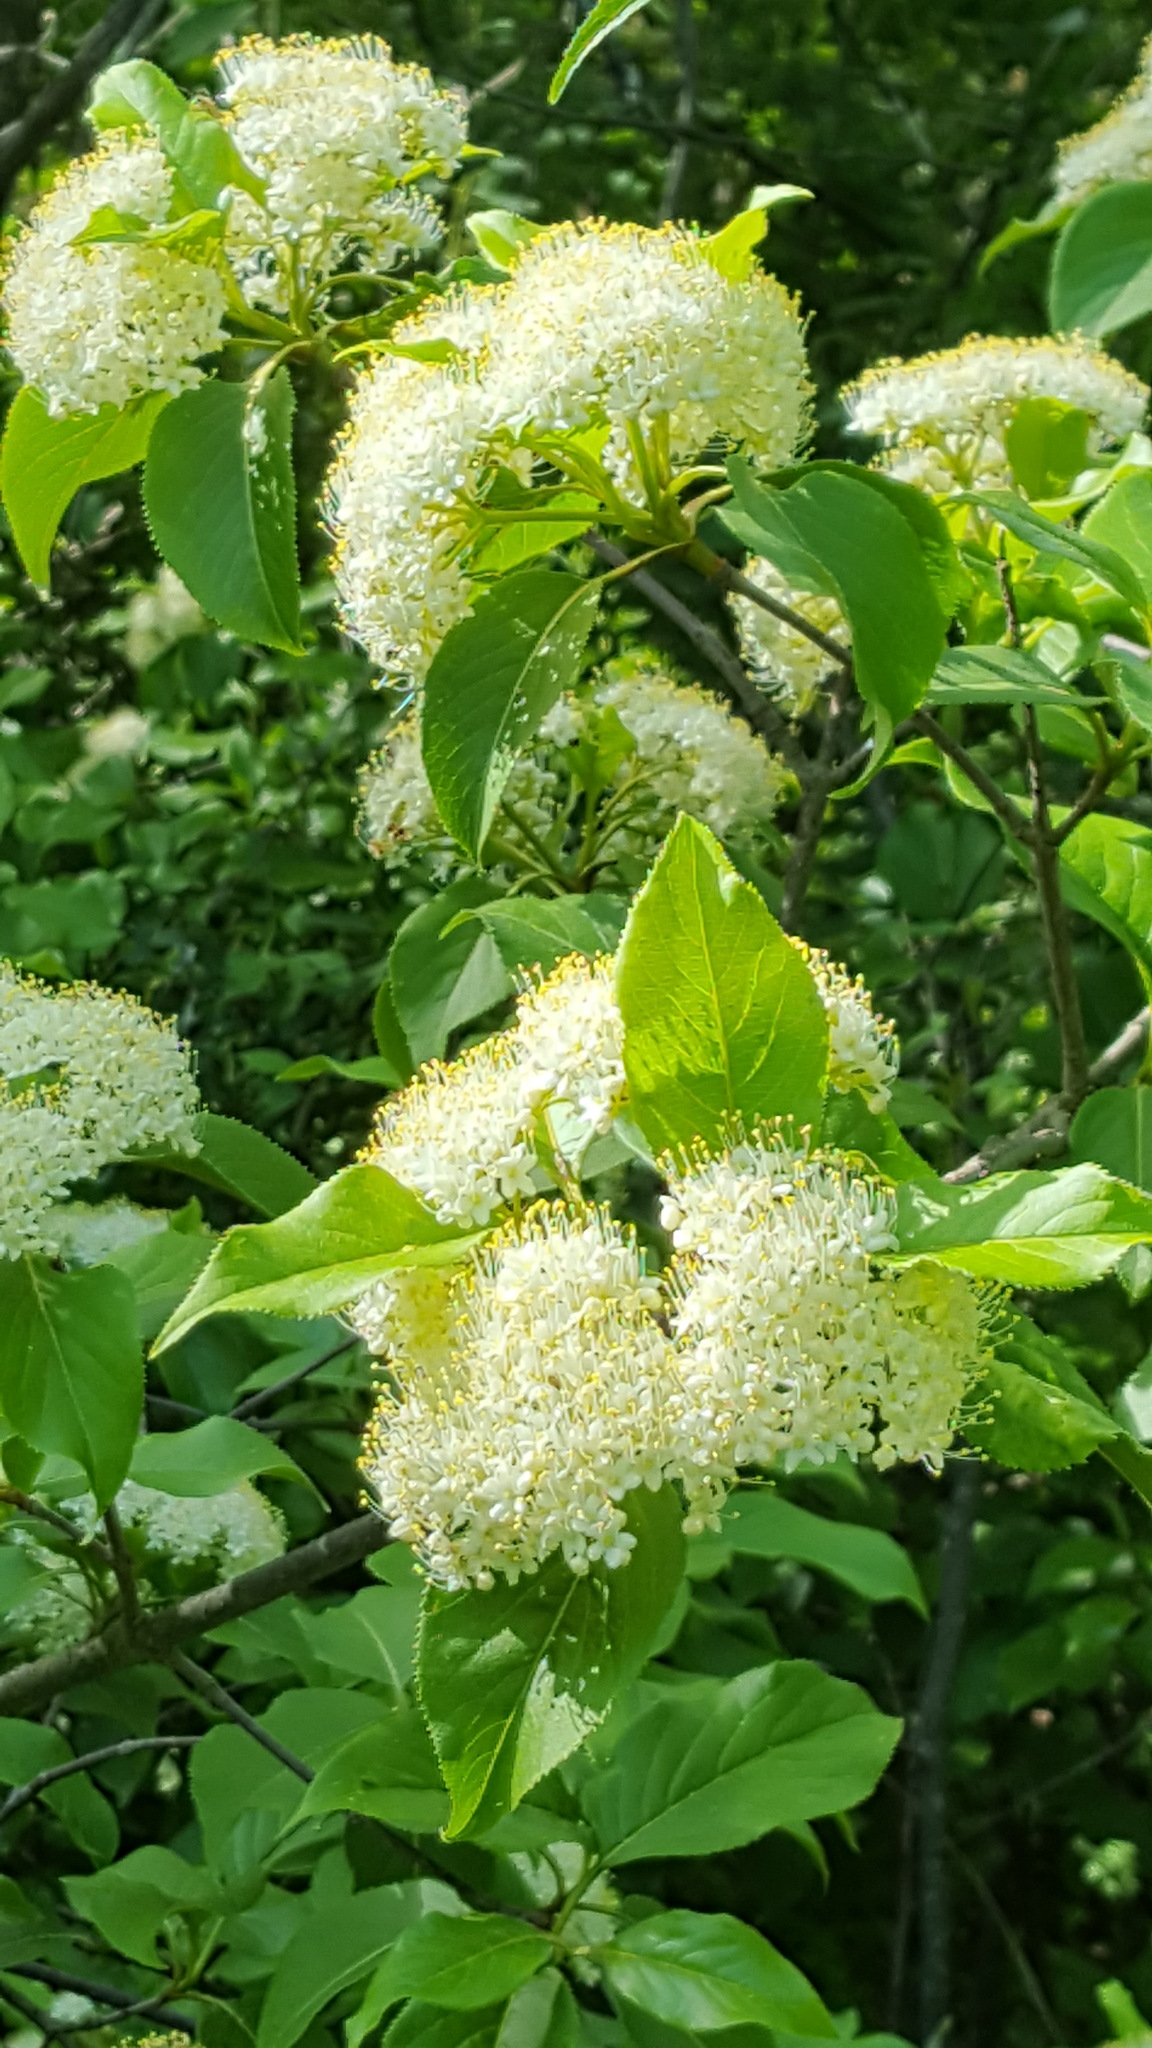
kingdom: Plantae
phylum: Tracheophyta
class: Magnoliopsida
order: Dipsacales
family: Viburnaceae
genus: Viburnum
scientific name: Viburnum lentago
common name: Black haw
